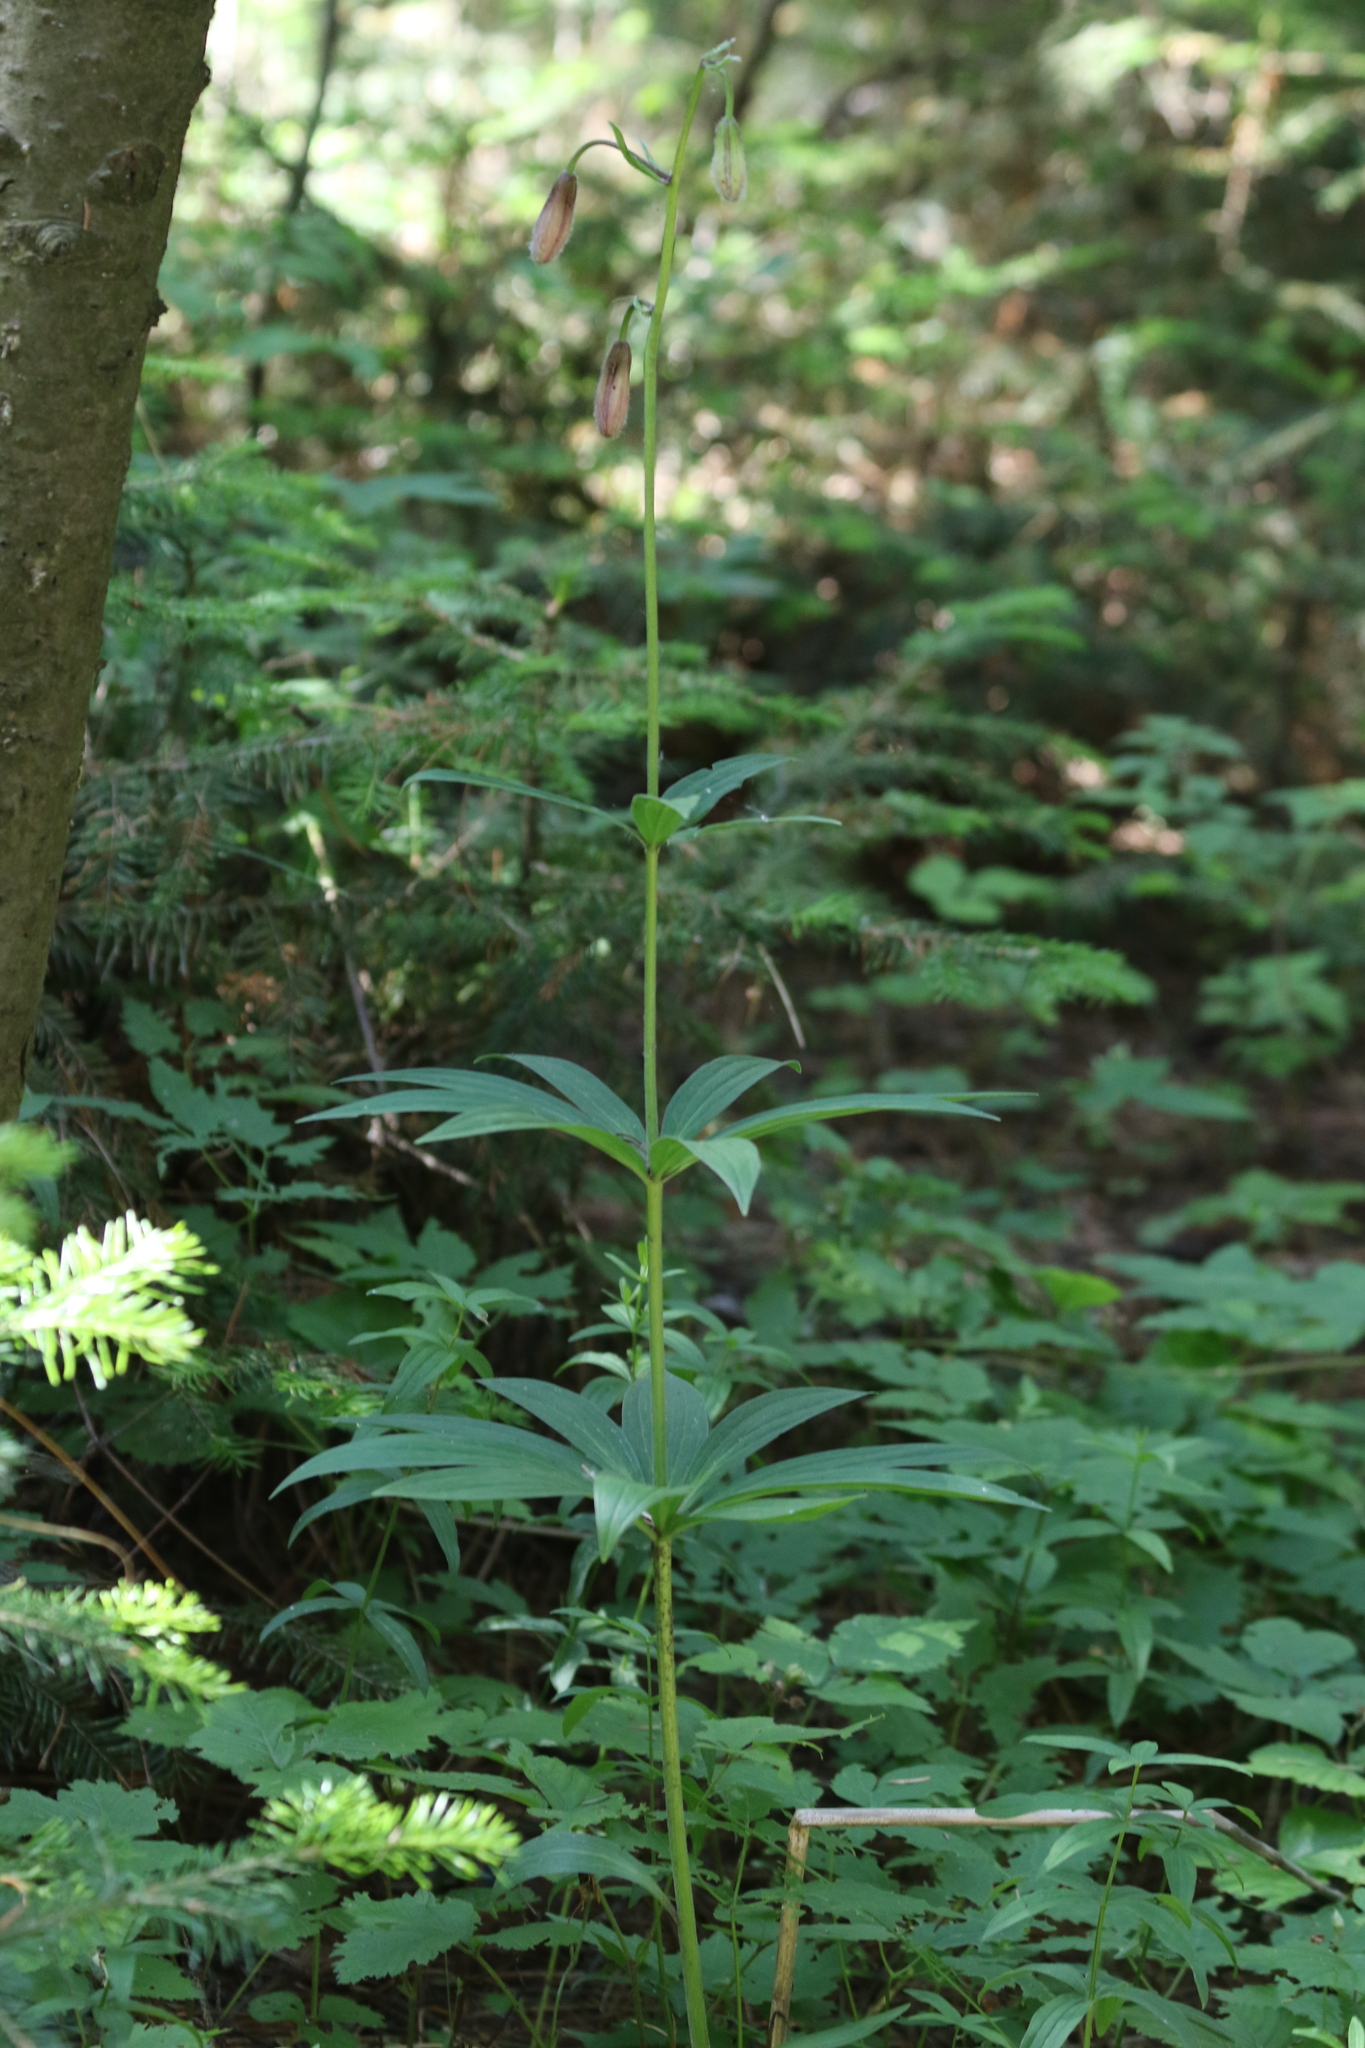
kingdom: Plantae
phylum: Tracheophyta
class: Liliopsida
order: Liliales
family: Liliaceae
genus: Lilium
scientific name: Lilium martagon
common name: Martagon lily
